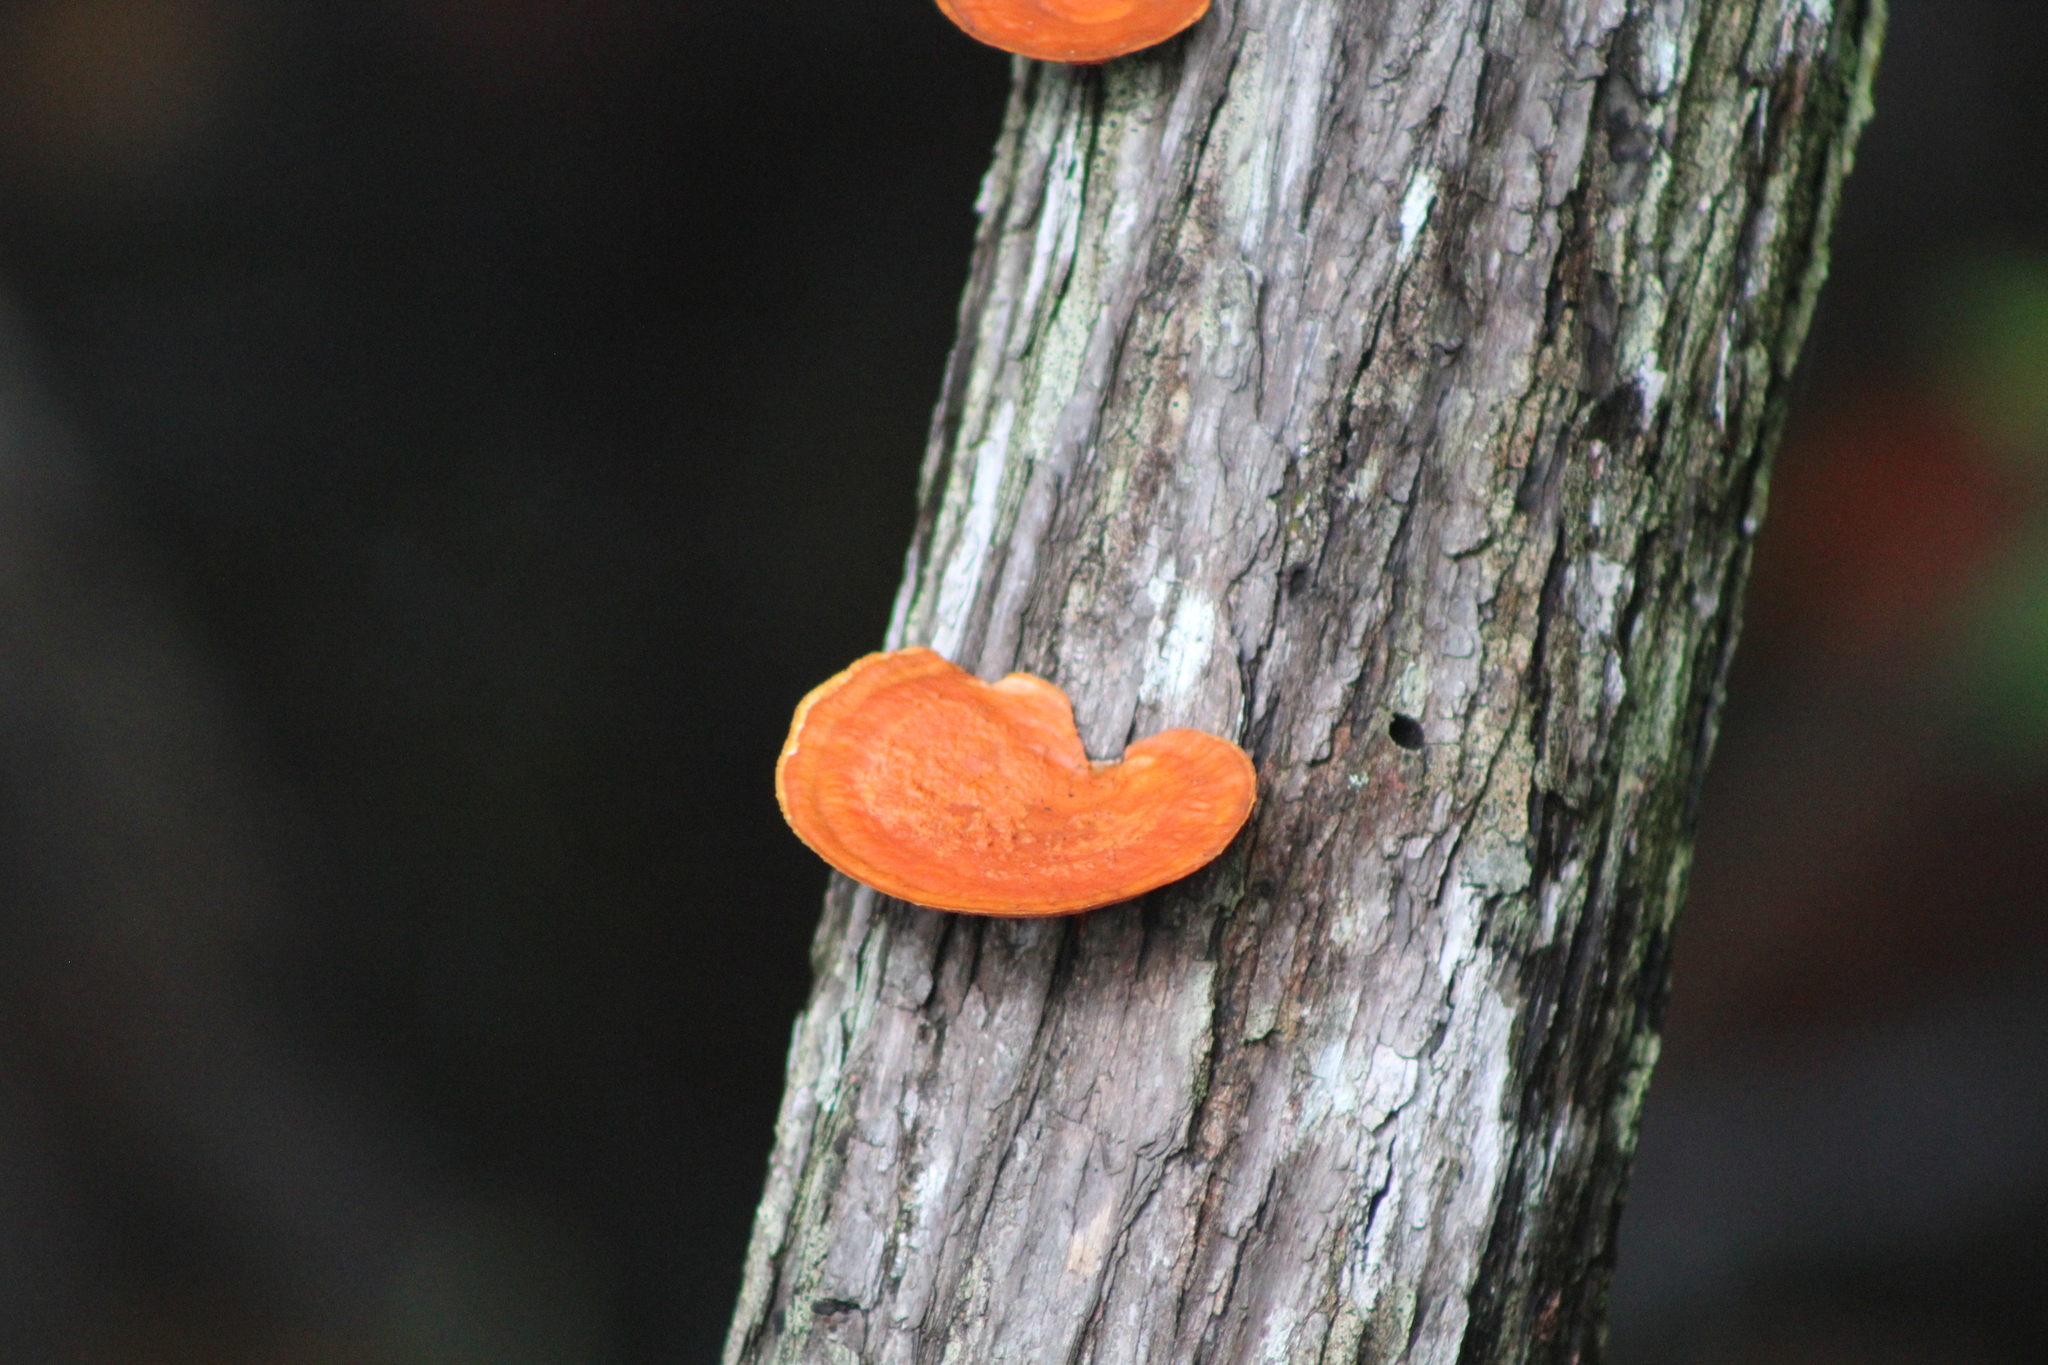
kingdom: Fungi
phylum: Basidiomycota
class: Agaricomycetes
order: Polyporales
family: Polyporaceae
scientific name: Polyporaceae
